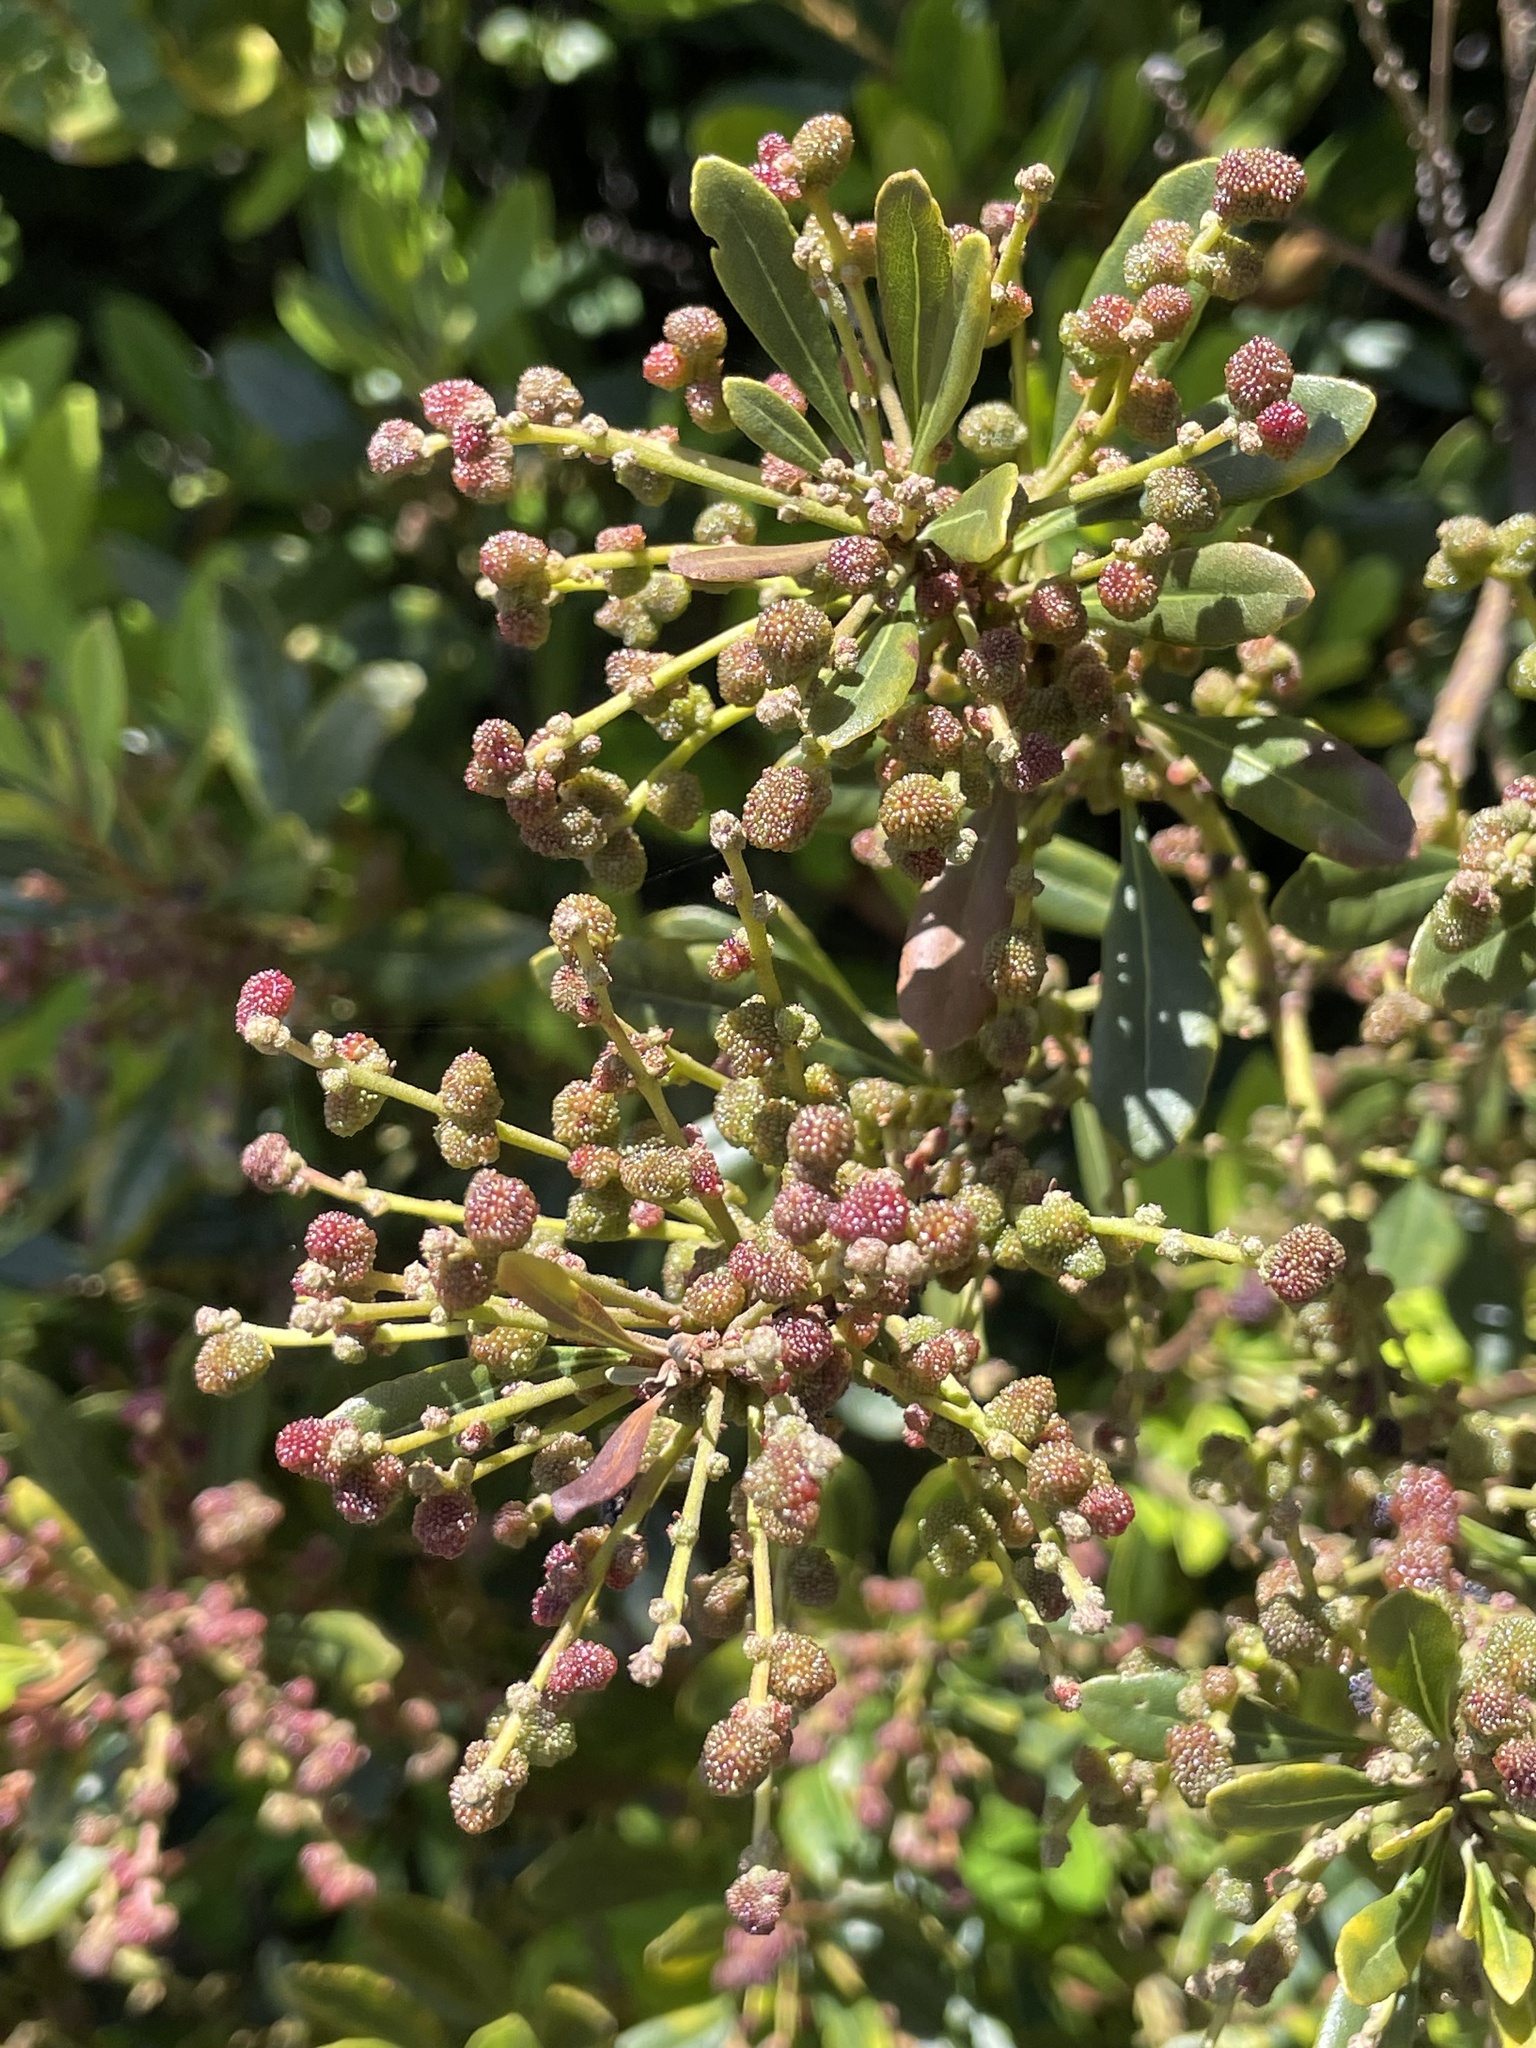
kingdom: Plantae
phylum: Tracheophyta
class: Magnoliopsida
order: Fagales
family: Myricaceae
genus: Morella
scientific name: Morella faya
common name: Firetree
